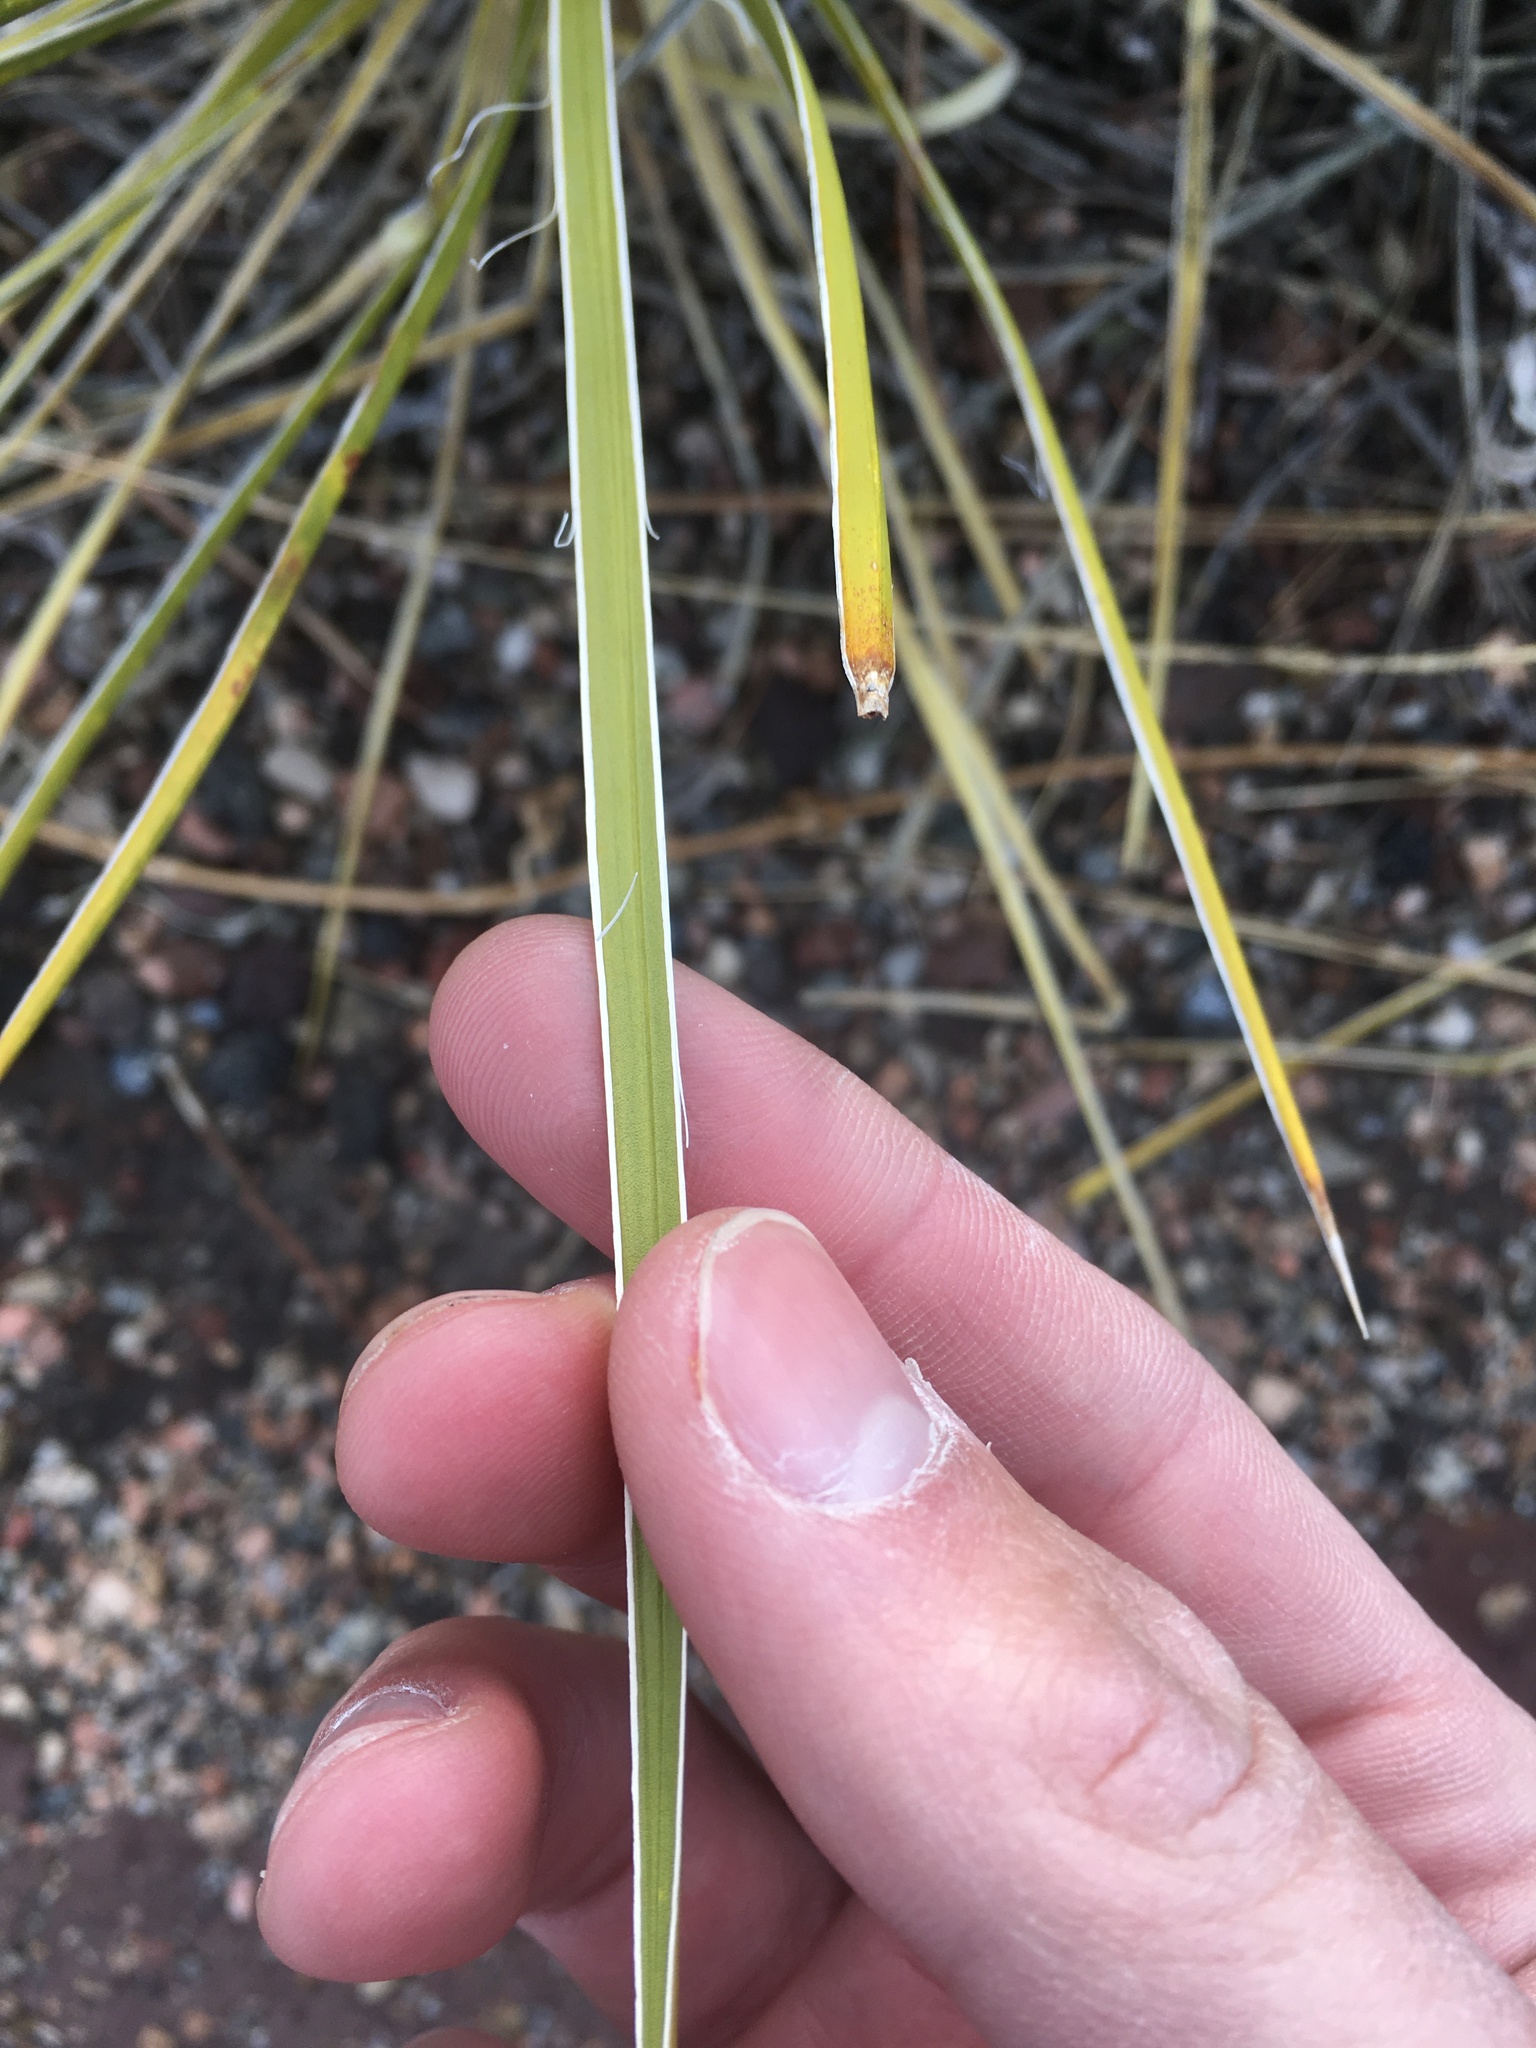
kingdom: Plantae
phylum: Tracheophyta
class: Liliopsida
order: Asparagales
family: Asparagaceae
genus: Yucca
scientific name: Yucca glauca
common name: Great plains yucca
